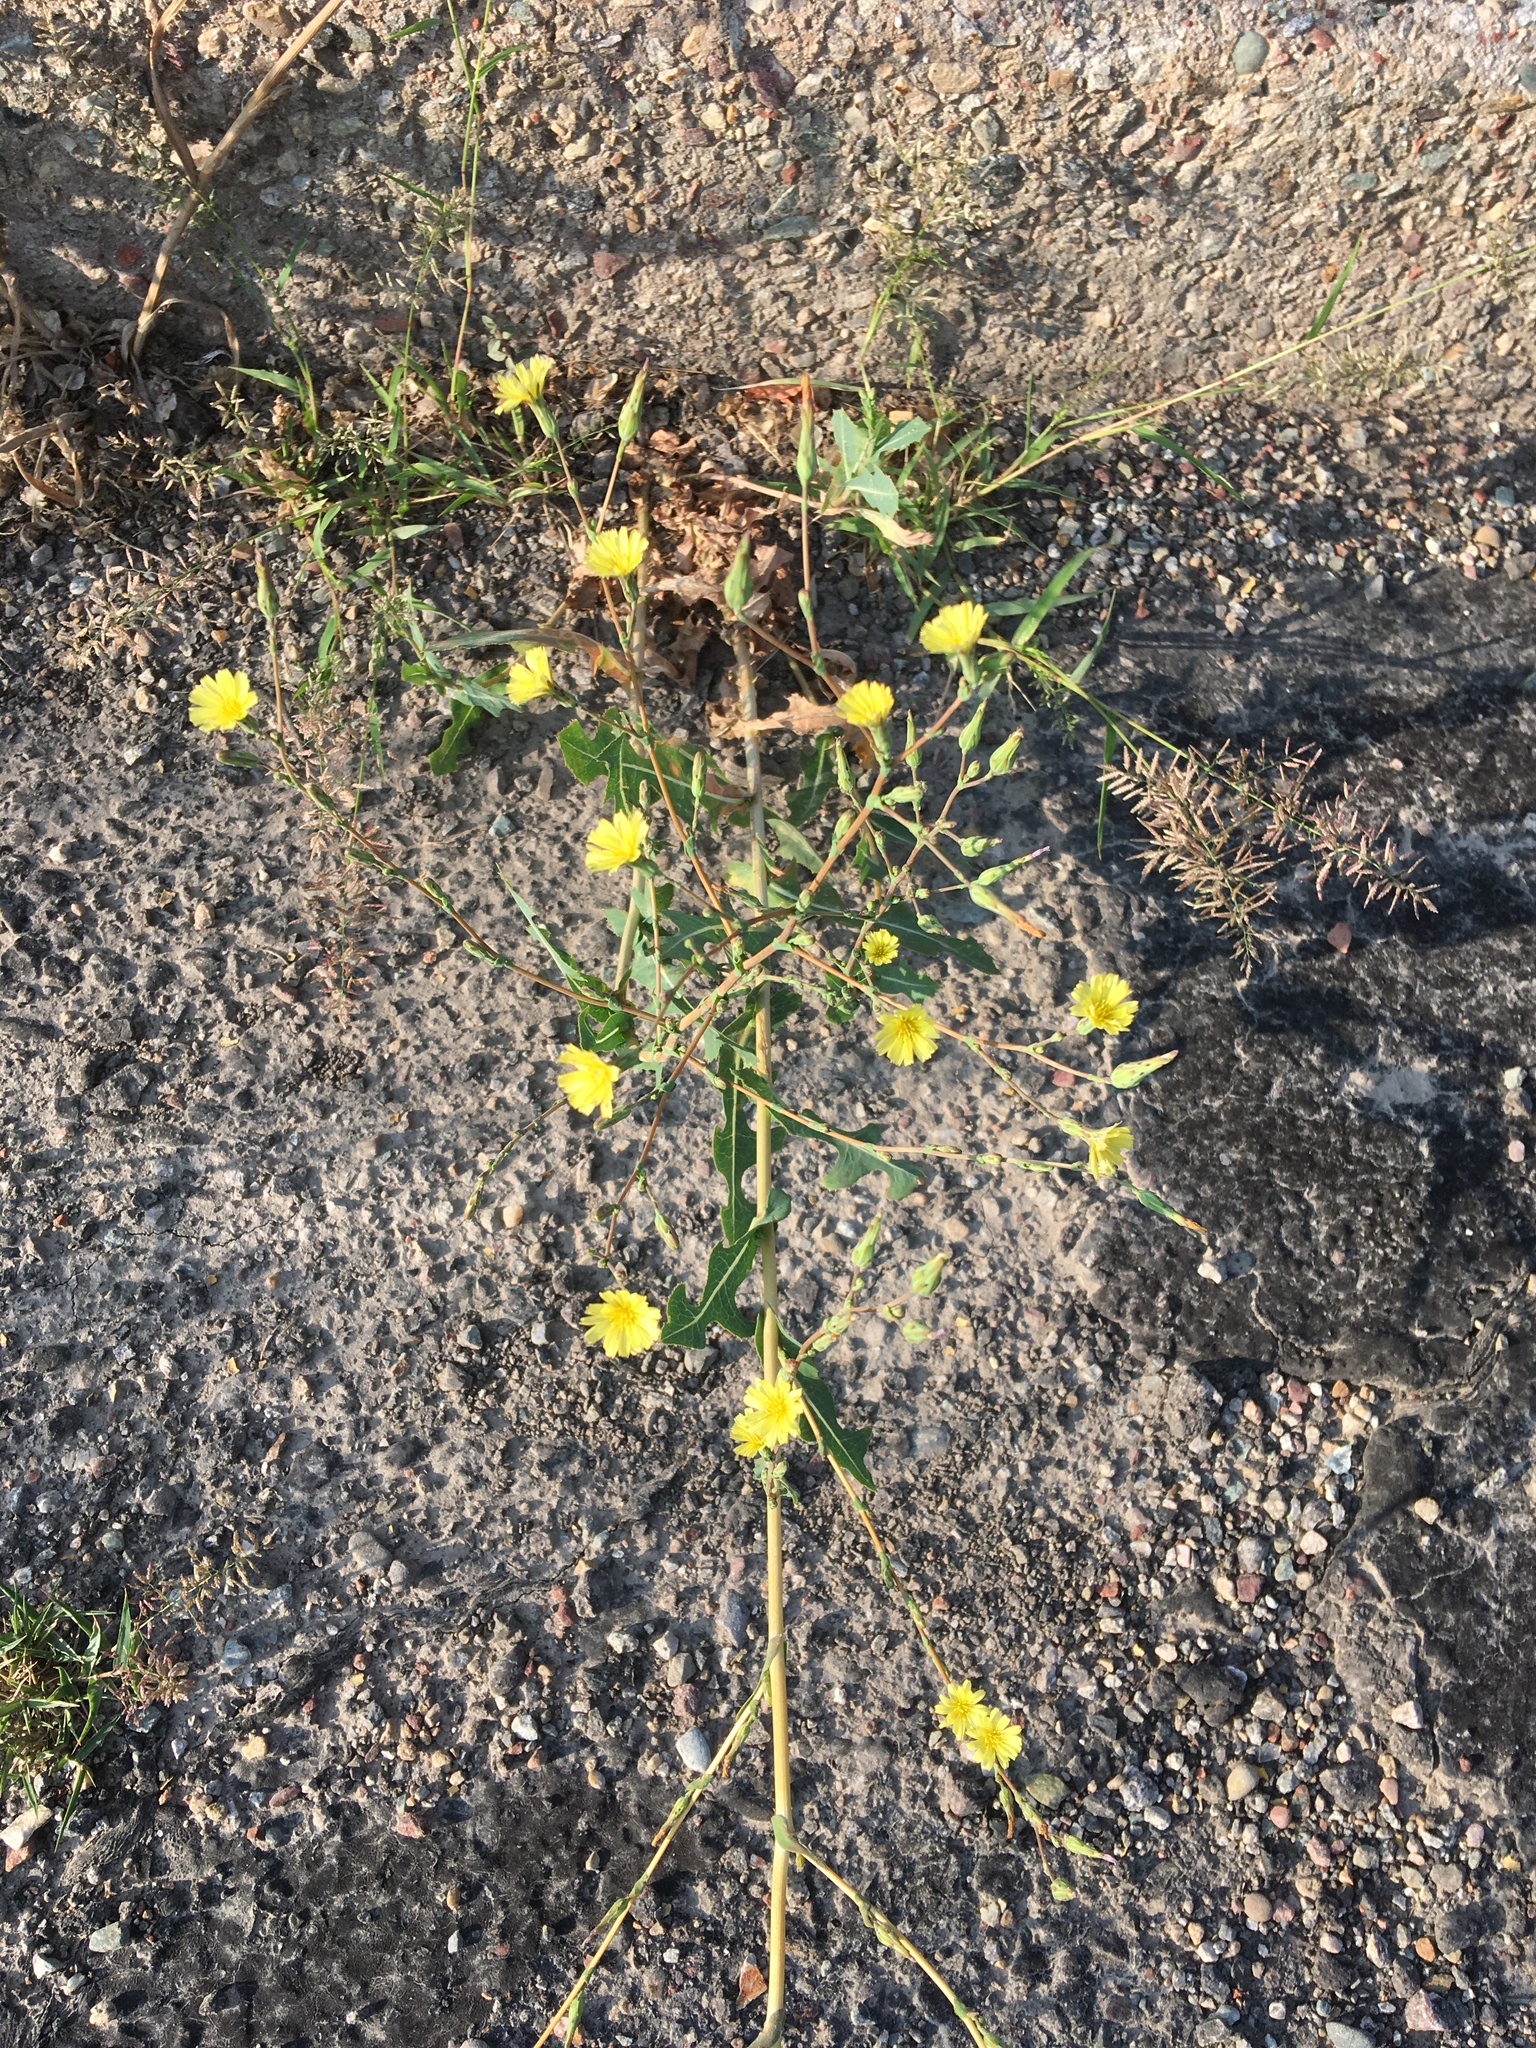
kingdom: Plantae
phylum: Tracheophyta
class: Magnoliopsida
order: Asterales
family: Asteraceae
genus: Lactuca
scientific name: Lactuca serriola
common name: Prickly lettuce
